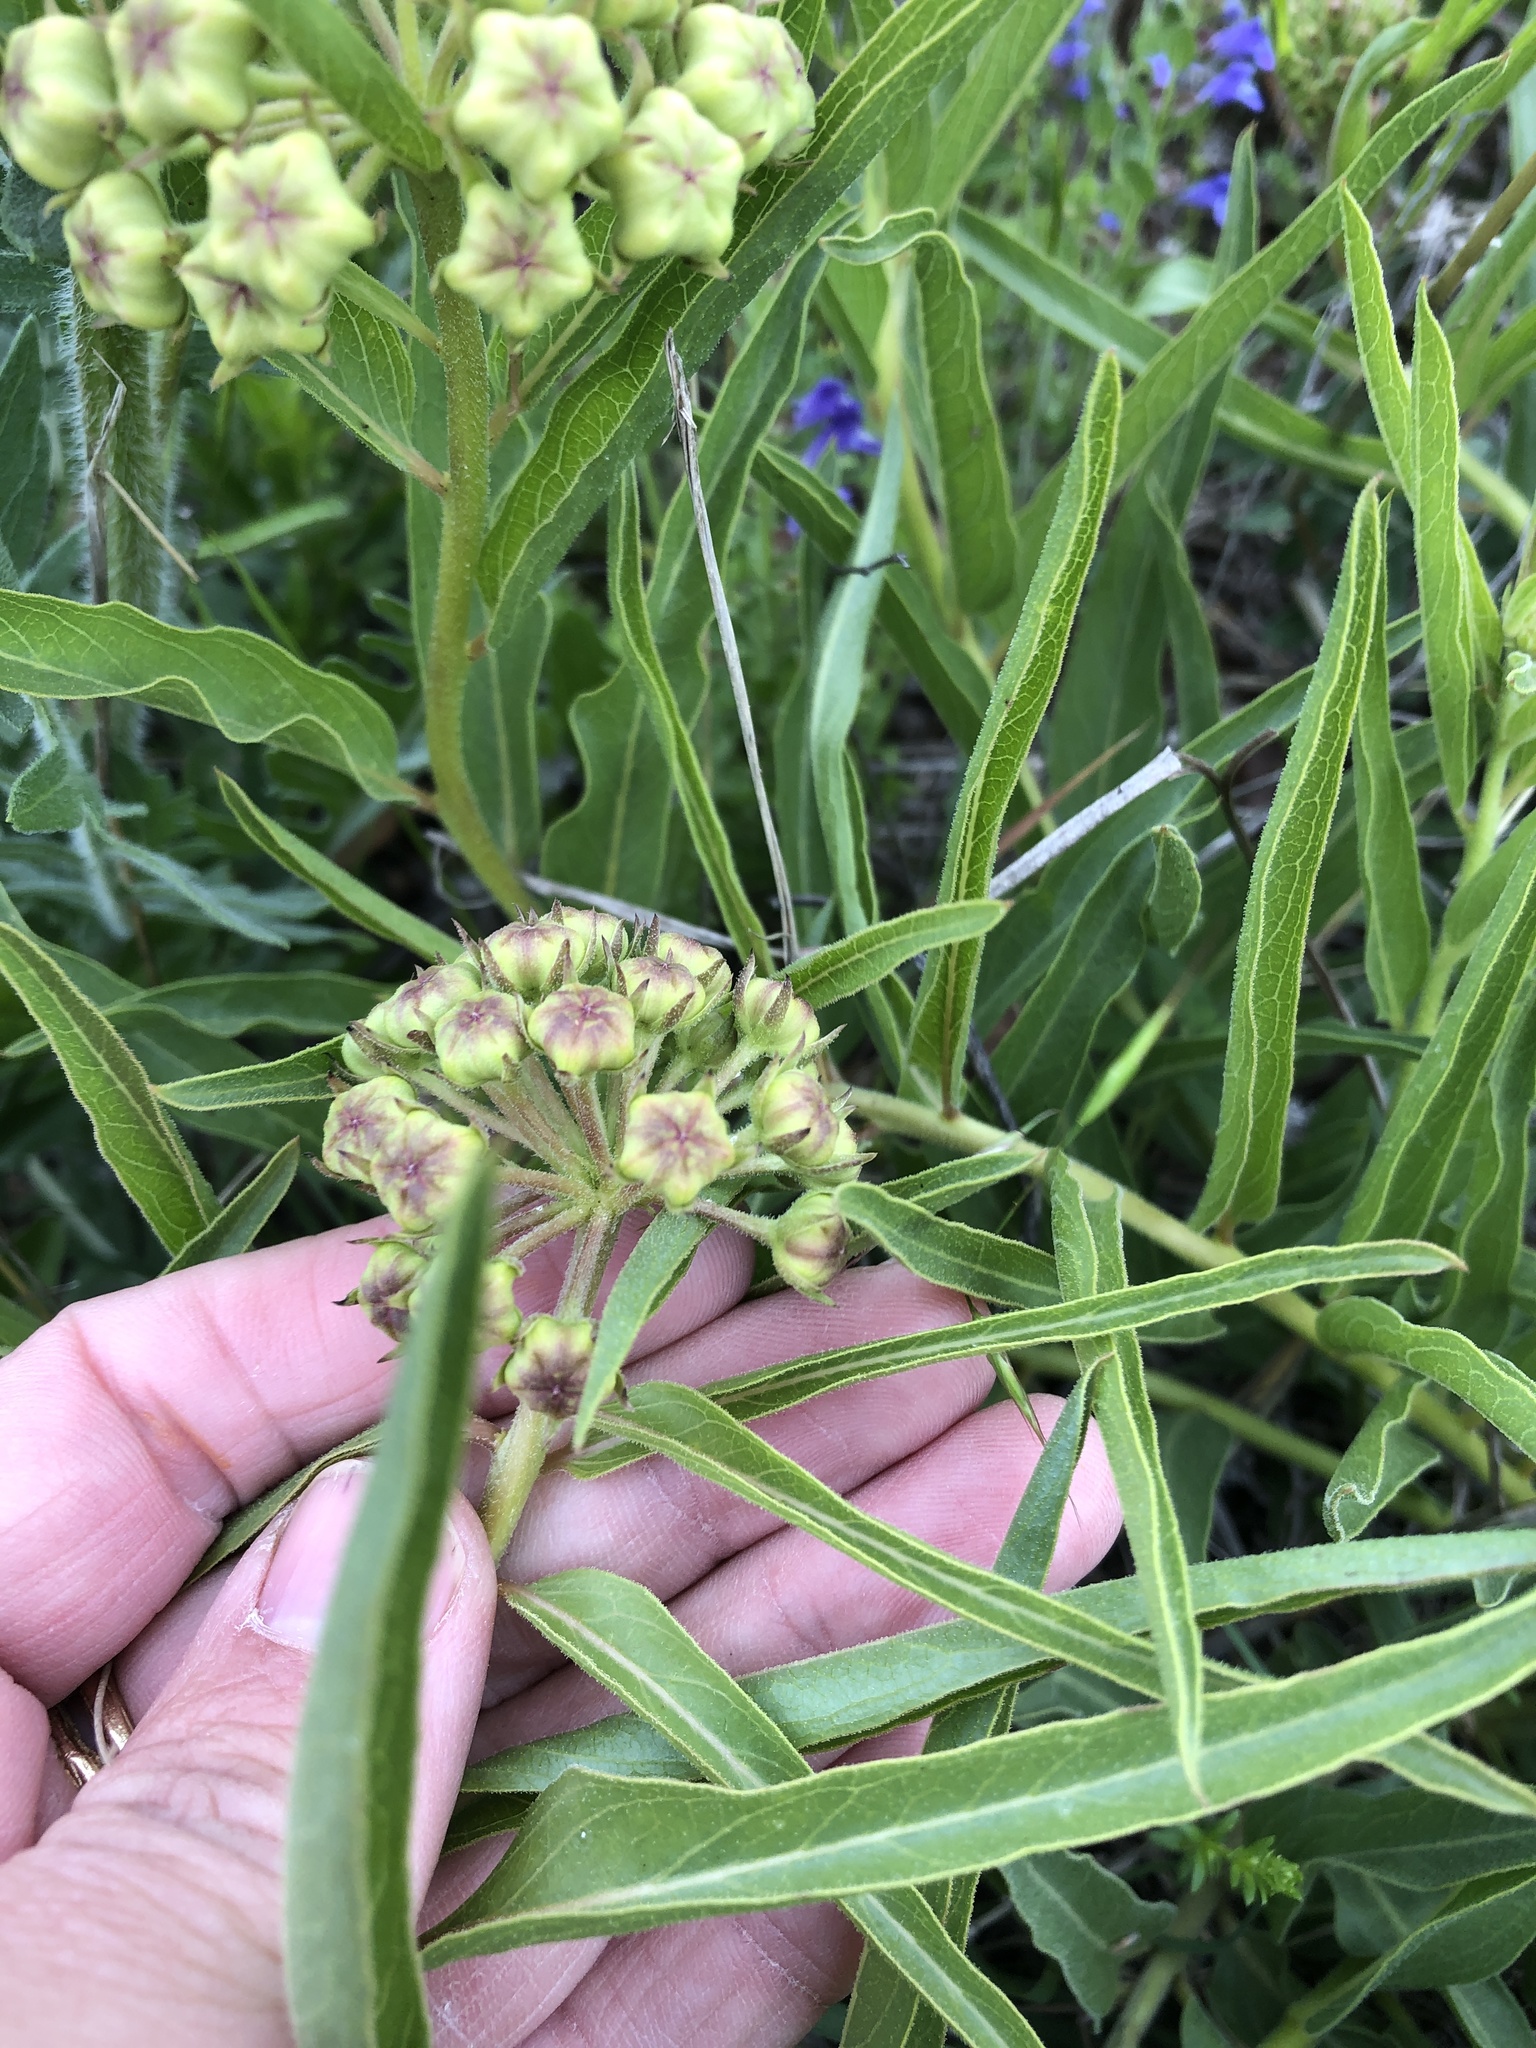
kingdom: Plantae
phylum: Tracheophyta
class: Magnoliopsida
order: Gentianales
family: Apocynaceae
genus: Asclepias
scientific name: Asclepias asperula
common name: Antelope horns
